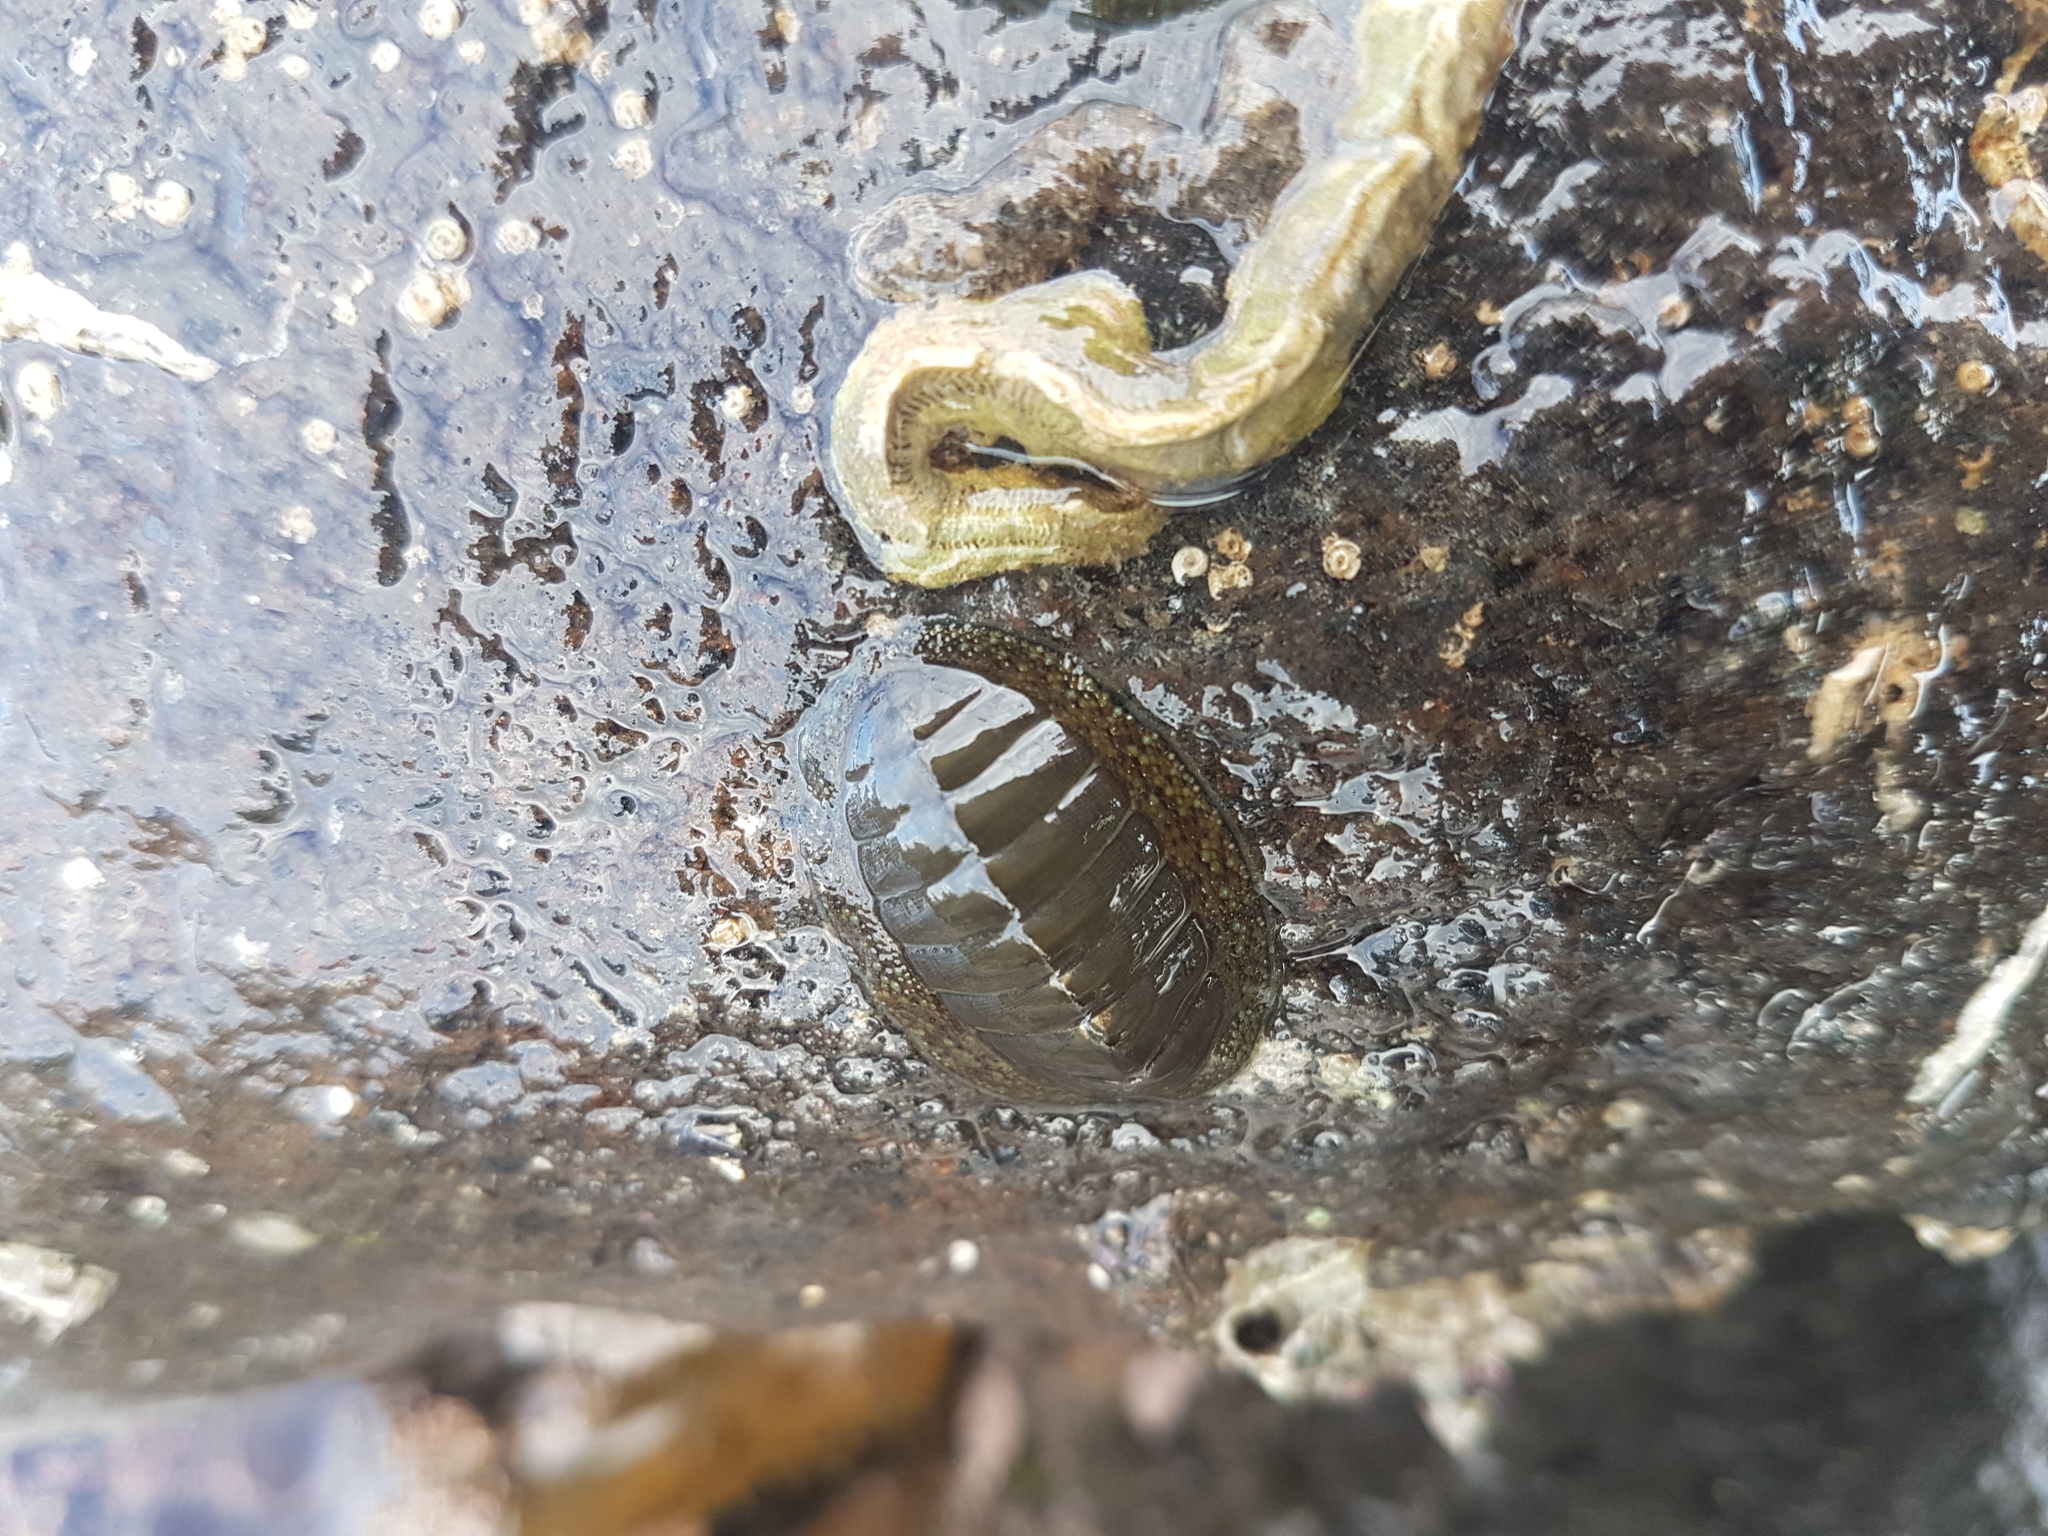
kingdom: Animalia
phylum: Mollusca
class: Polyplacophora
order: Chitonida
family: Chitonidae
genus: Chiton
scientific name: Chiton glaucus
